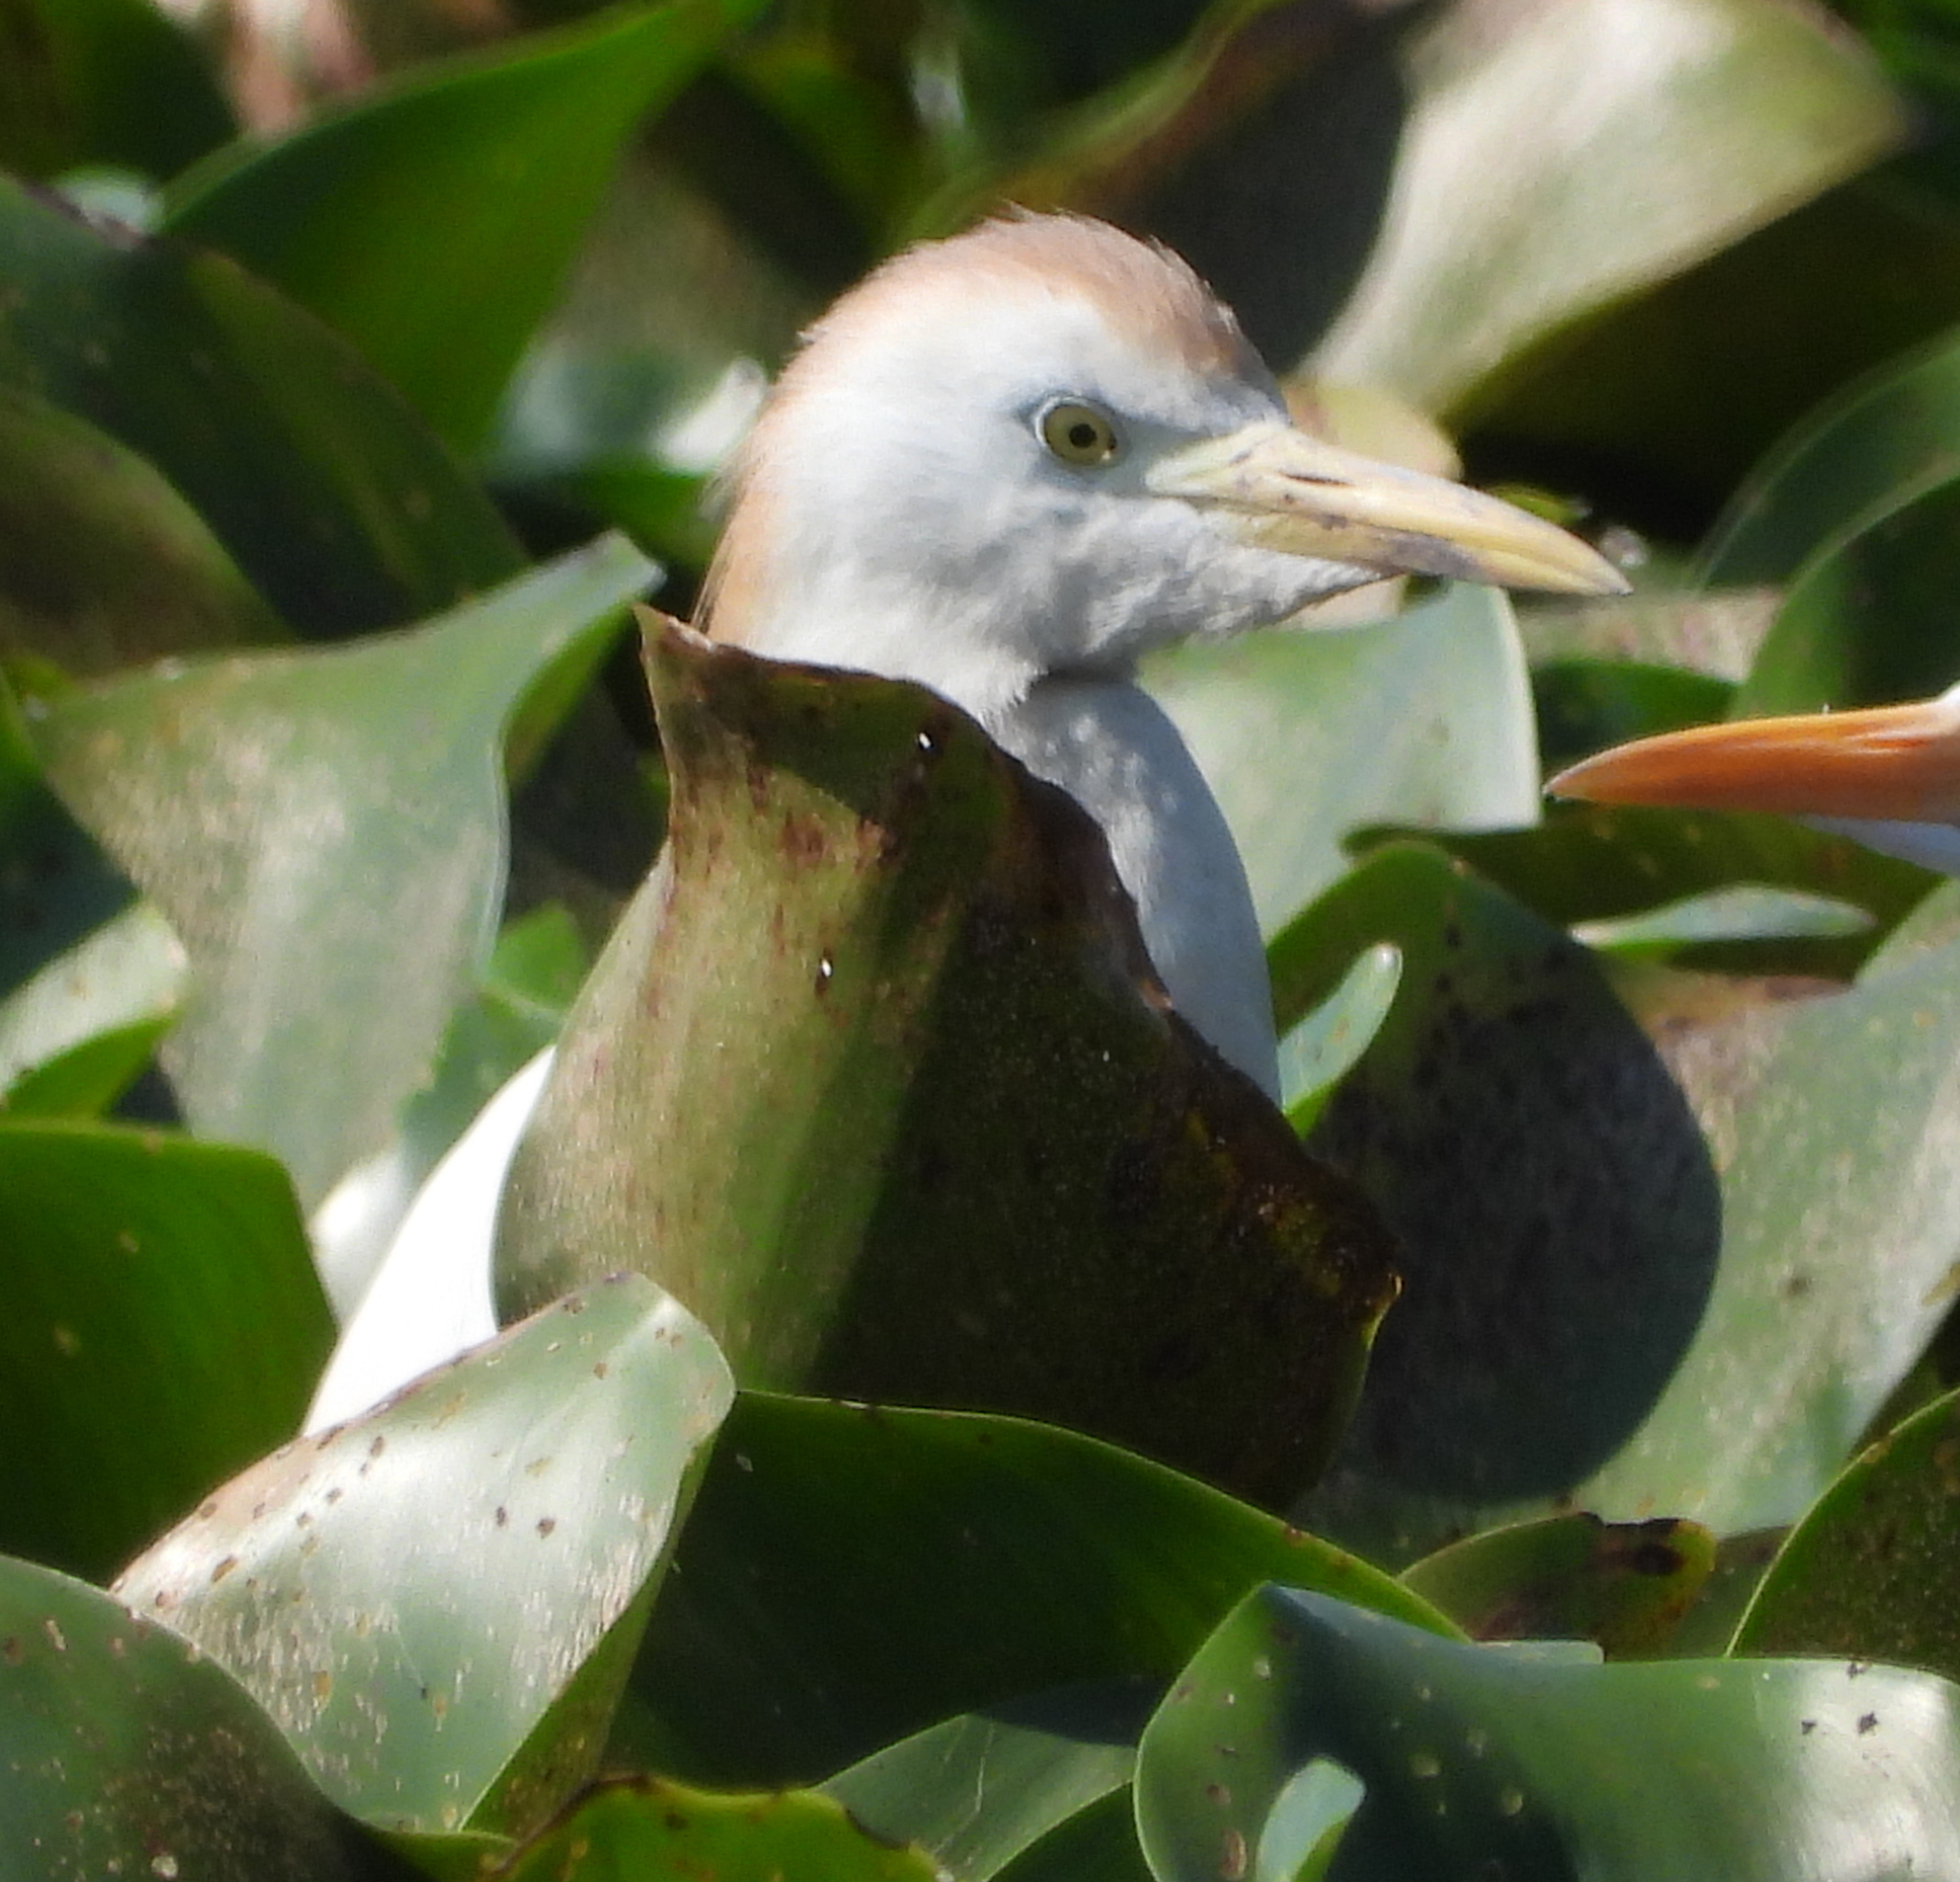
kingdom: Animalia
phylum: Chordata
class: Aves
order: Pelecaniformes
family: Ardeidae
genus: Bubulcus
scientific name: Bubulcus ibis
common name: Cattle egret
